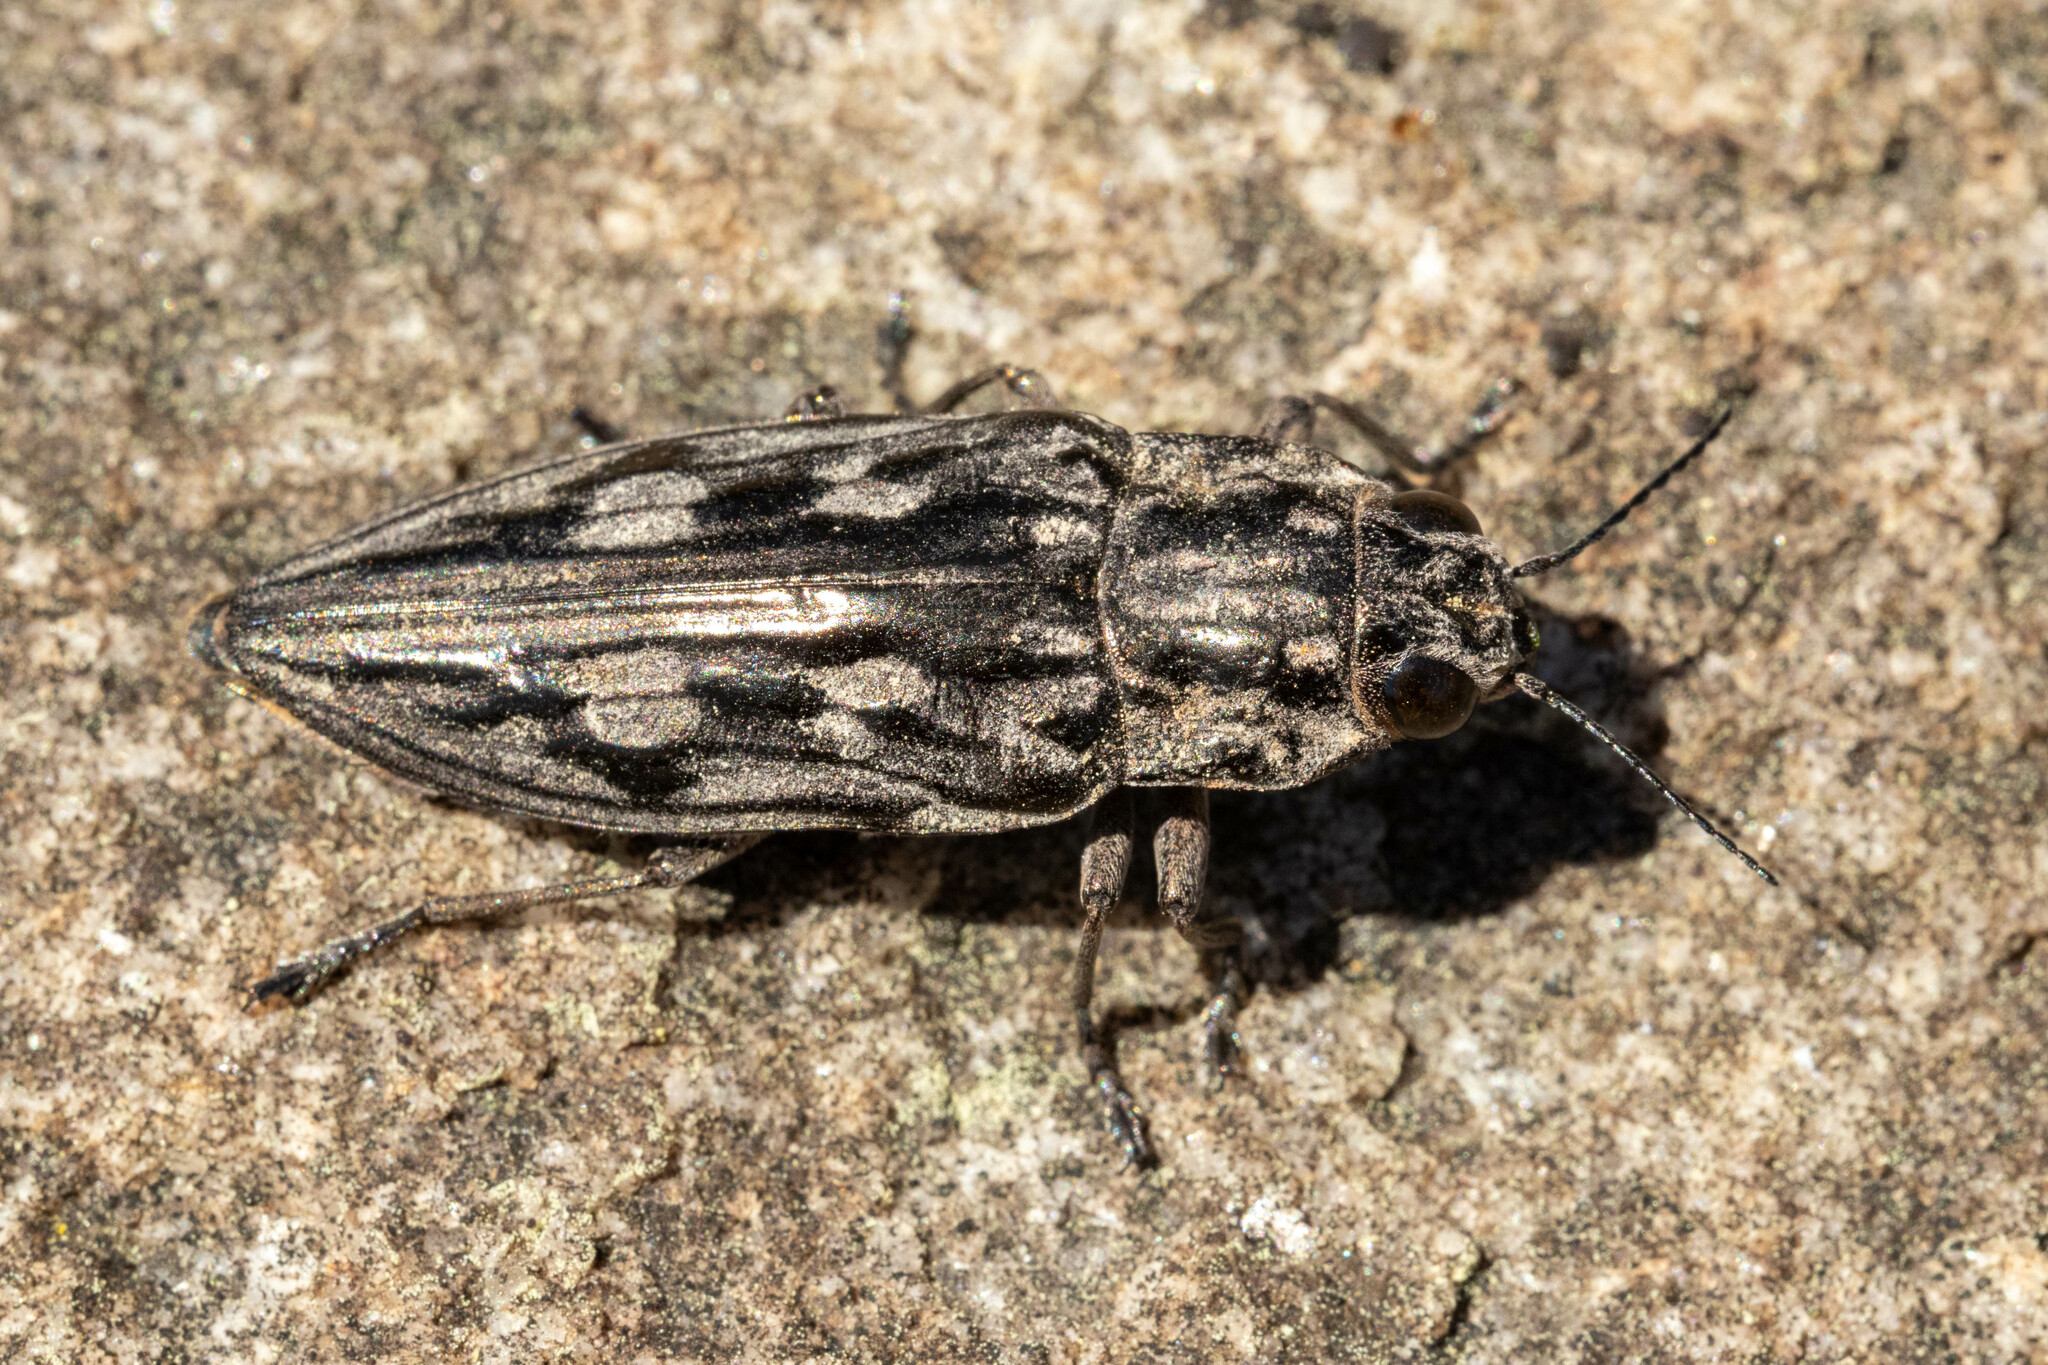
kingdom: Animalia
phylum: Arthropoda
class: Insecta
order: Coleoptera
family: Buprestidae
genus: Chalcophora
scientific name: Chalcophora virginiensis
